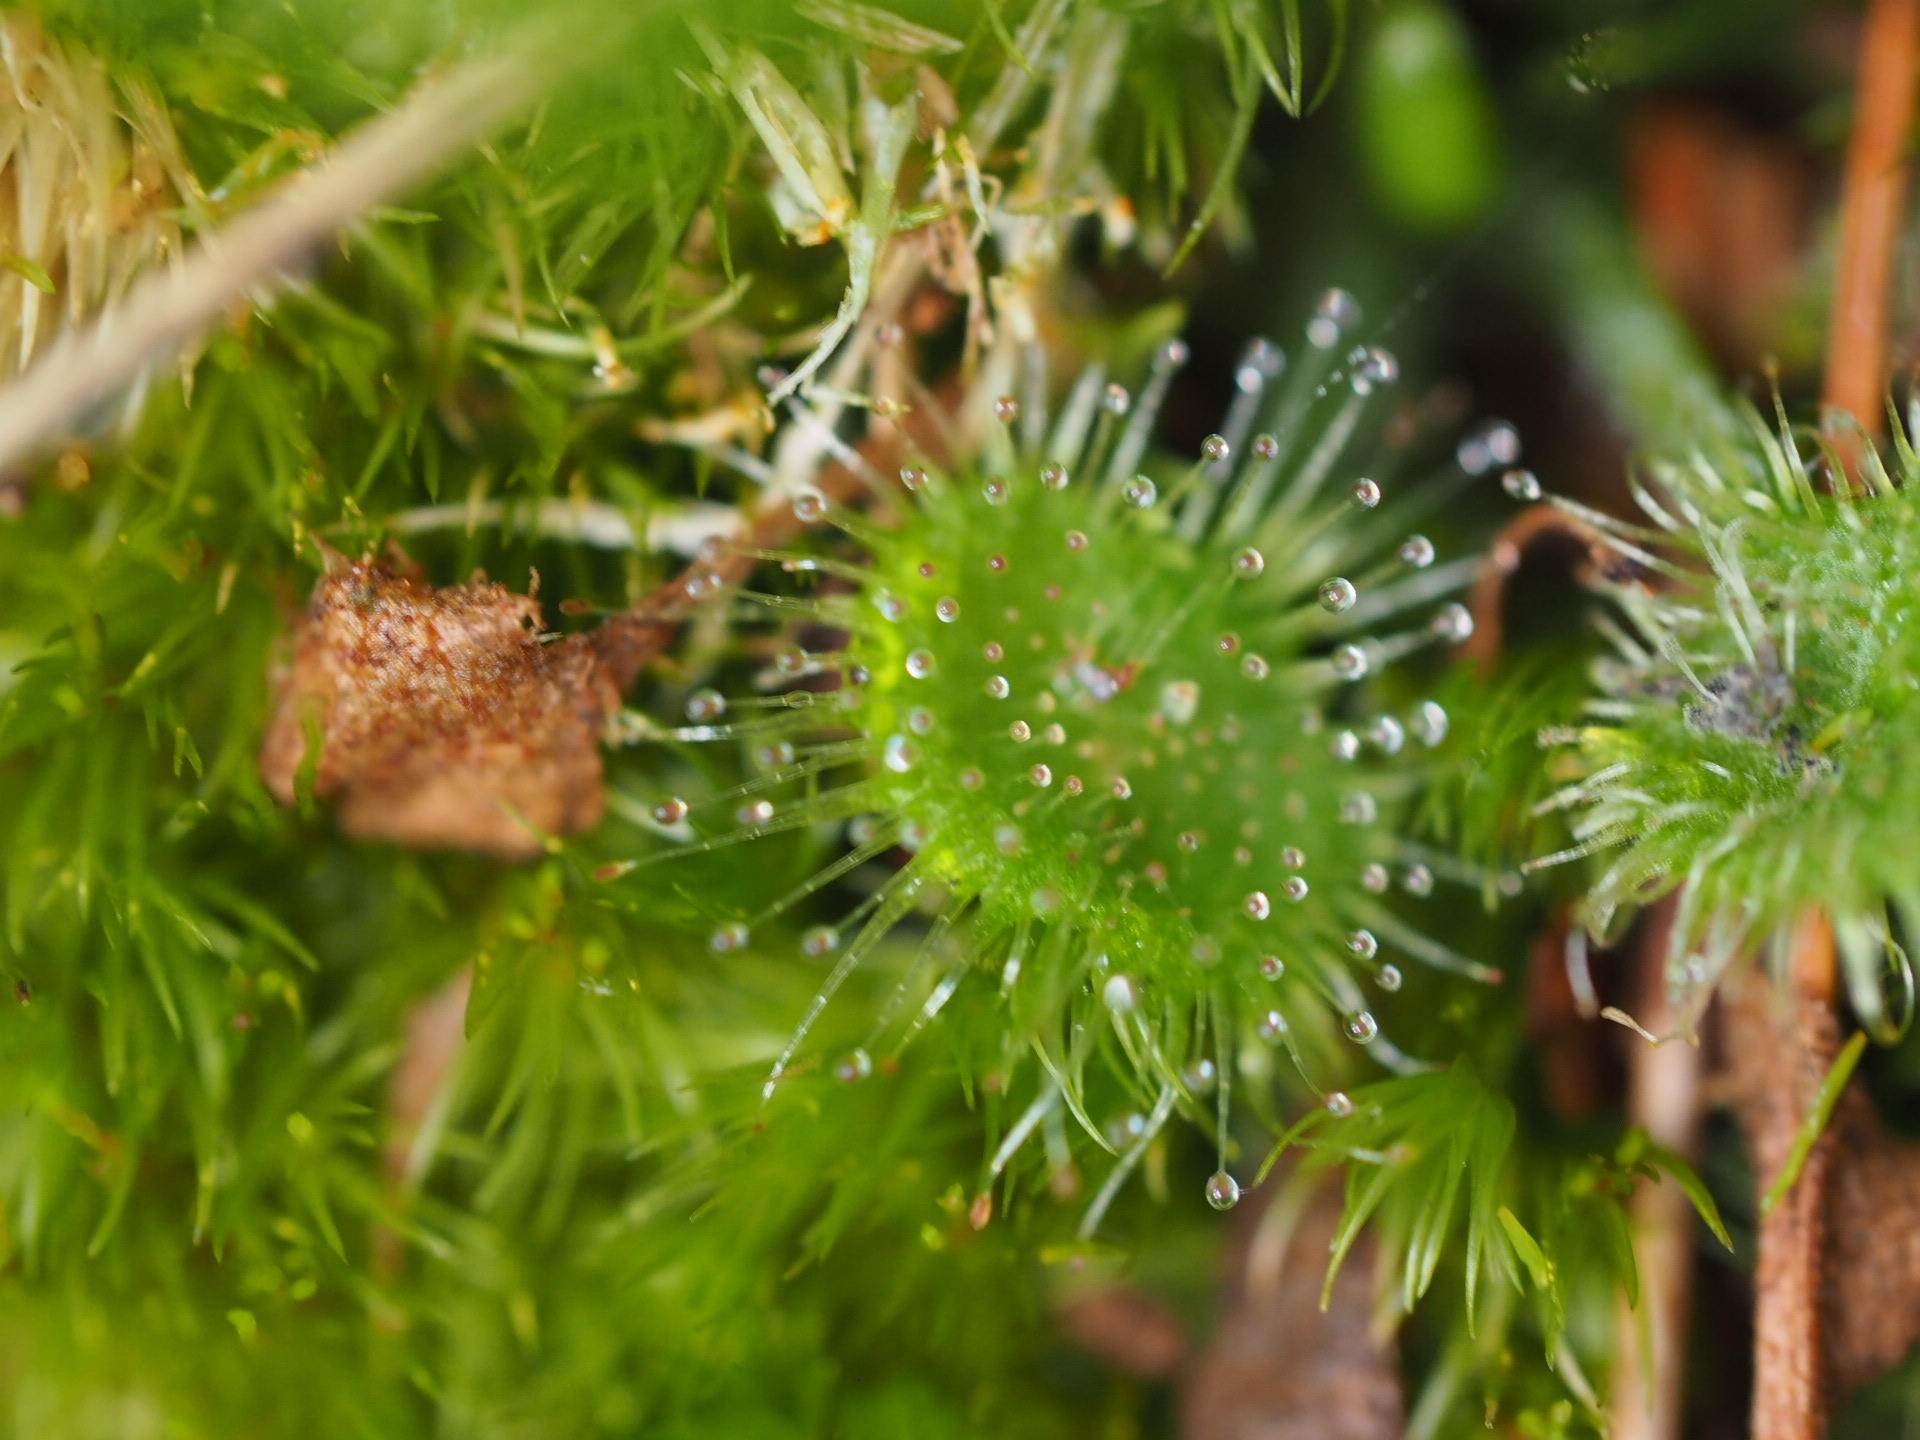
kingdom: Plantae
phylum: Tracheophyta
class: Magnoliopsida
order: Caryophyllales
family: Droseraceae
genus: Drosera
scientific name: Drosera rotundifolia
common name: Round-leaved sundew
